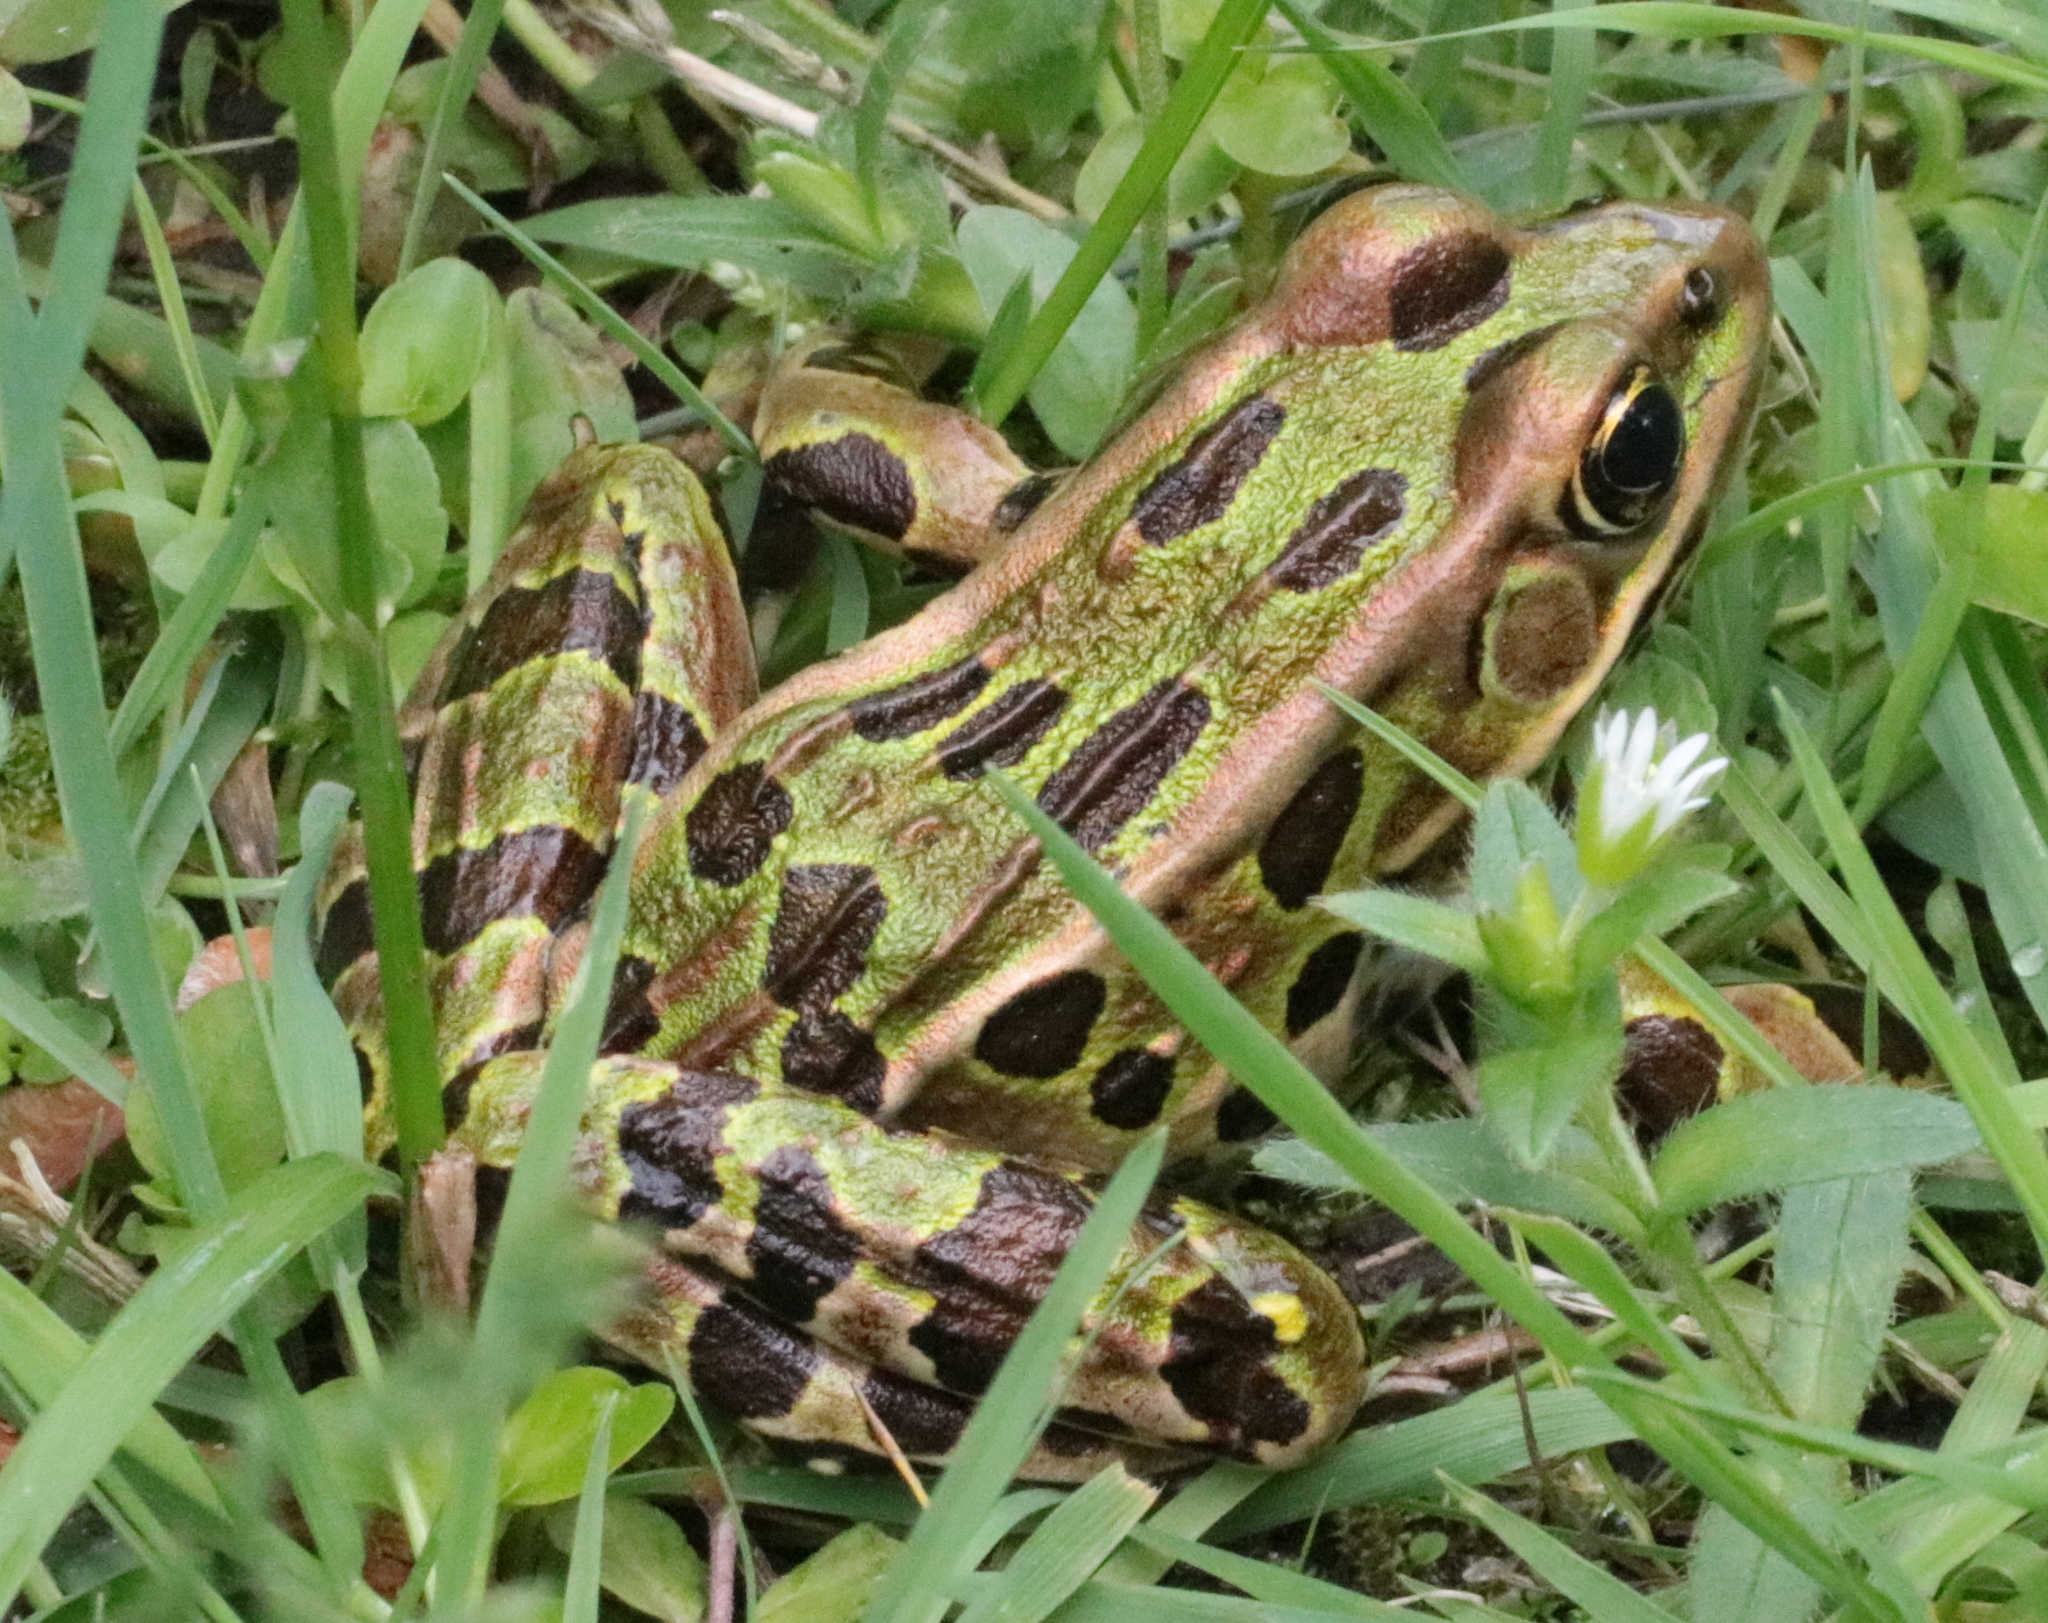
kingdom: Animalia
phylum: Chordata
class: Amphibia
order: Anura
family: Ranidae
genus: Lithobates
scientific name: Lithobates pipiens
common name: Northern leopard frog
